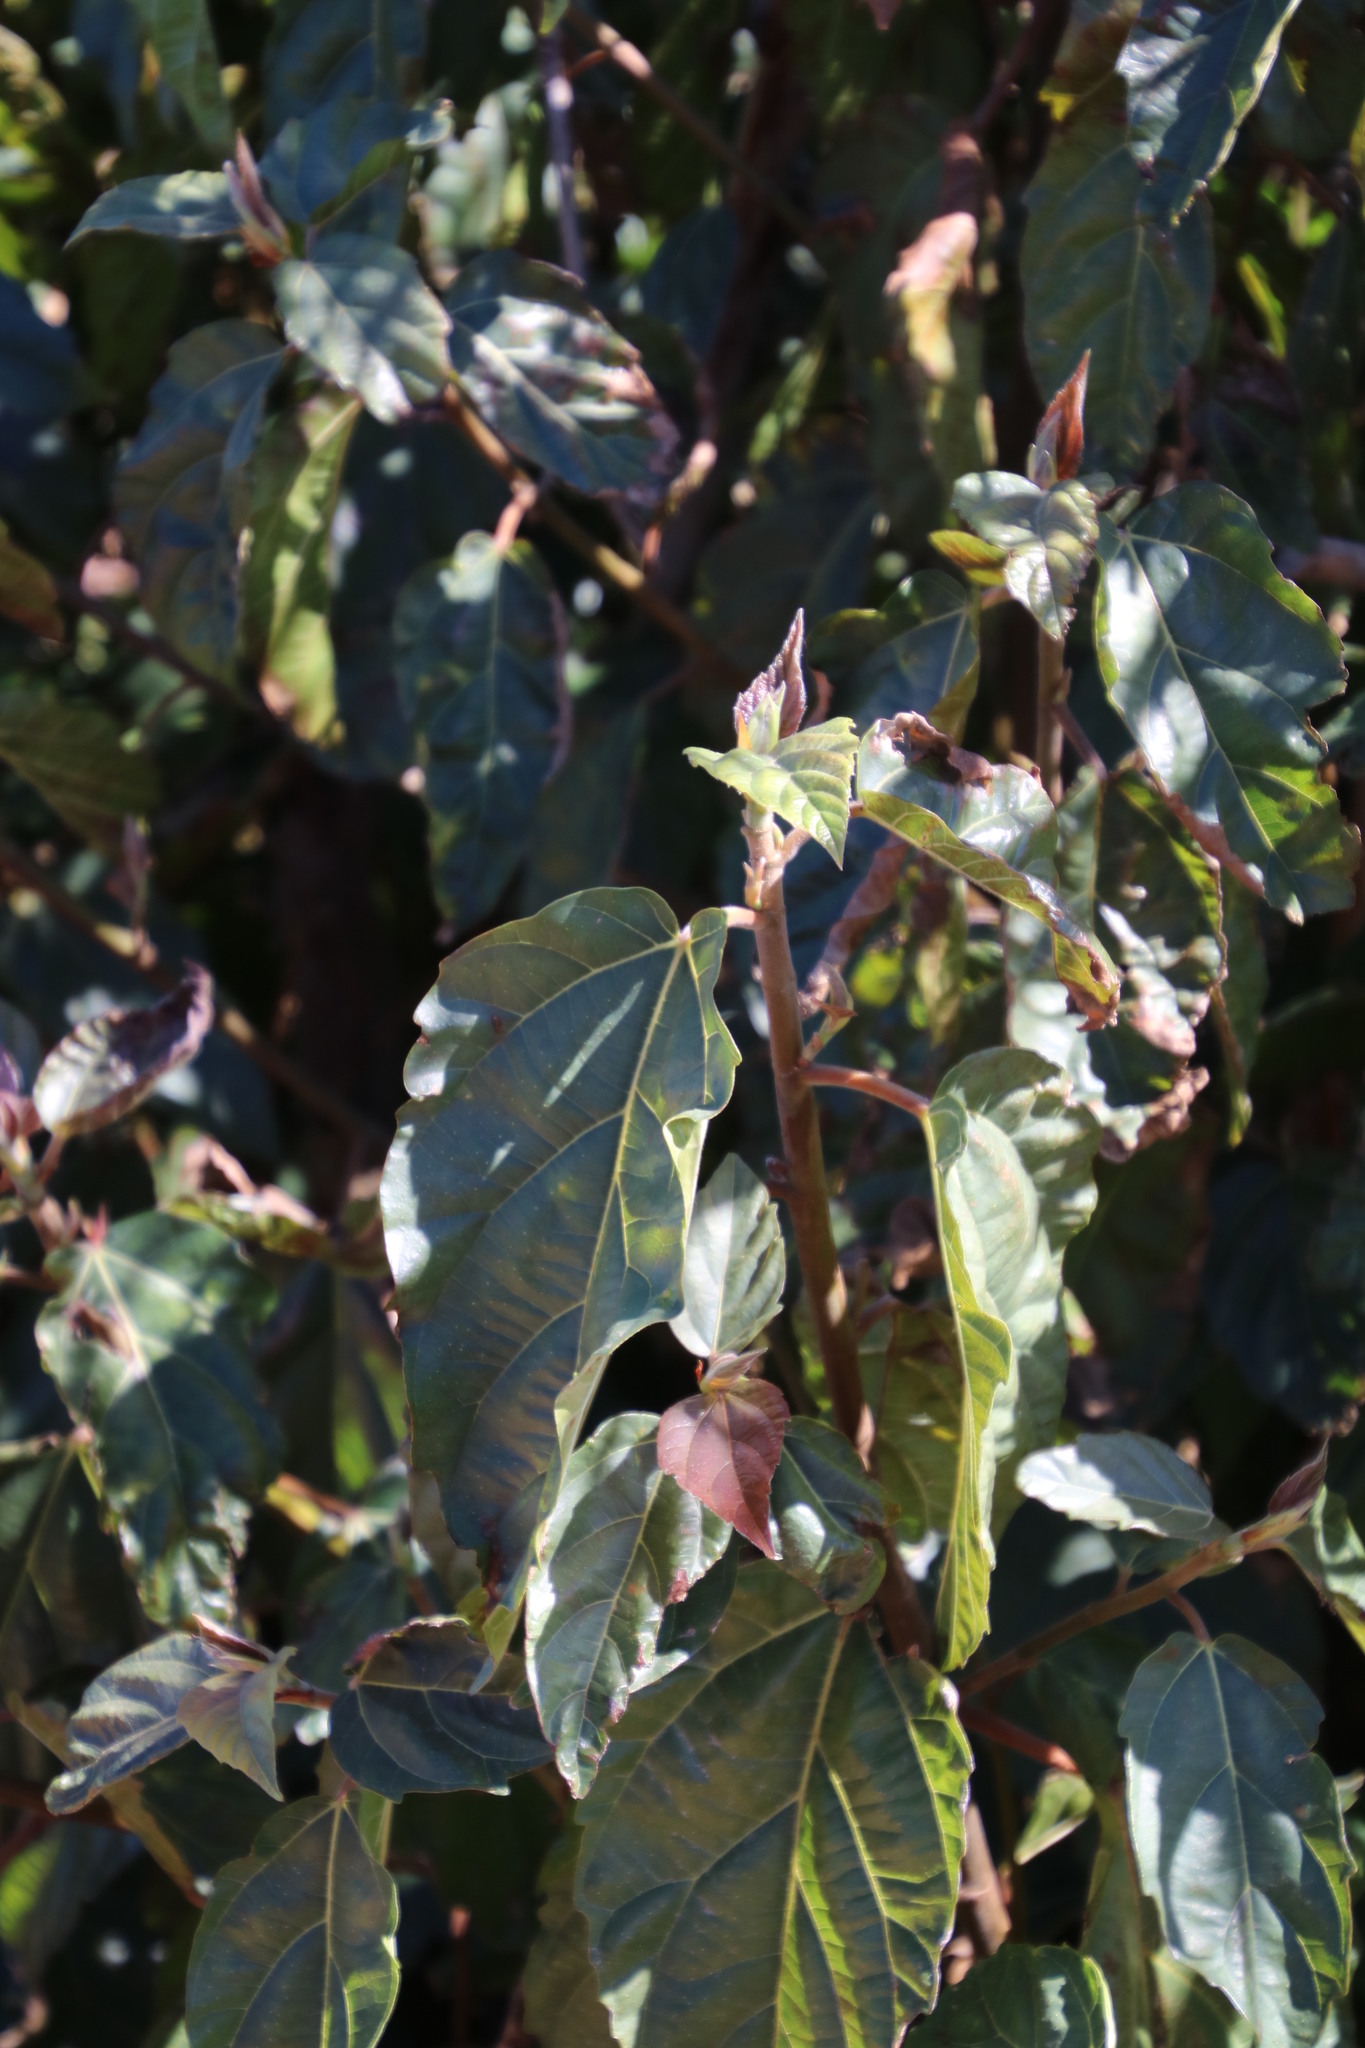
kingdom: Plantae
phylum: Tracheophyta
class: Magnoliopsida
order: Rosales
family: Moraceae
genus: Ficus
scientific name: Ficus sur
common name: Cape fig
